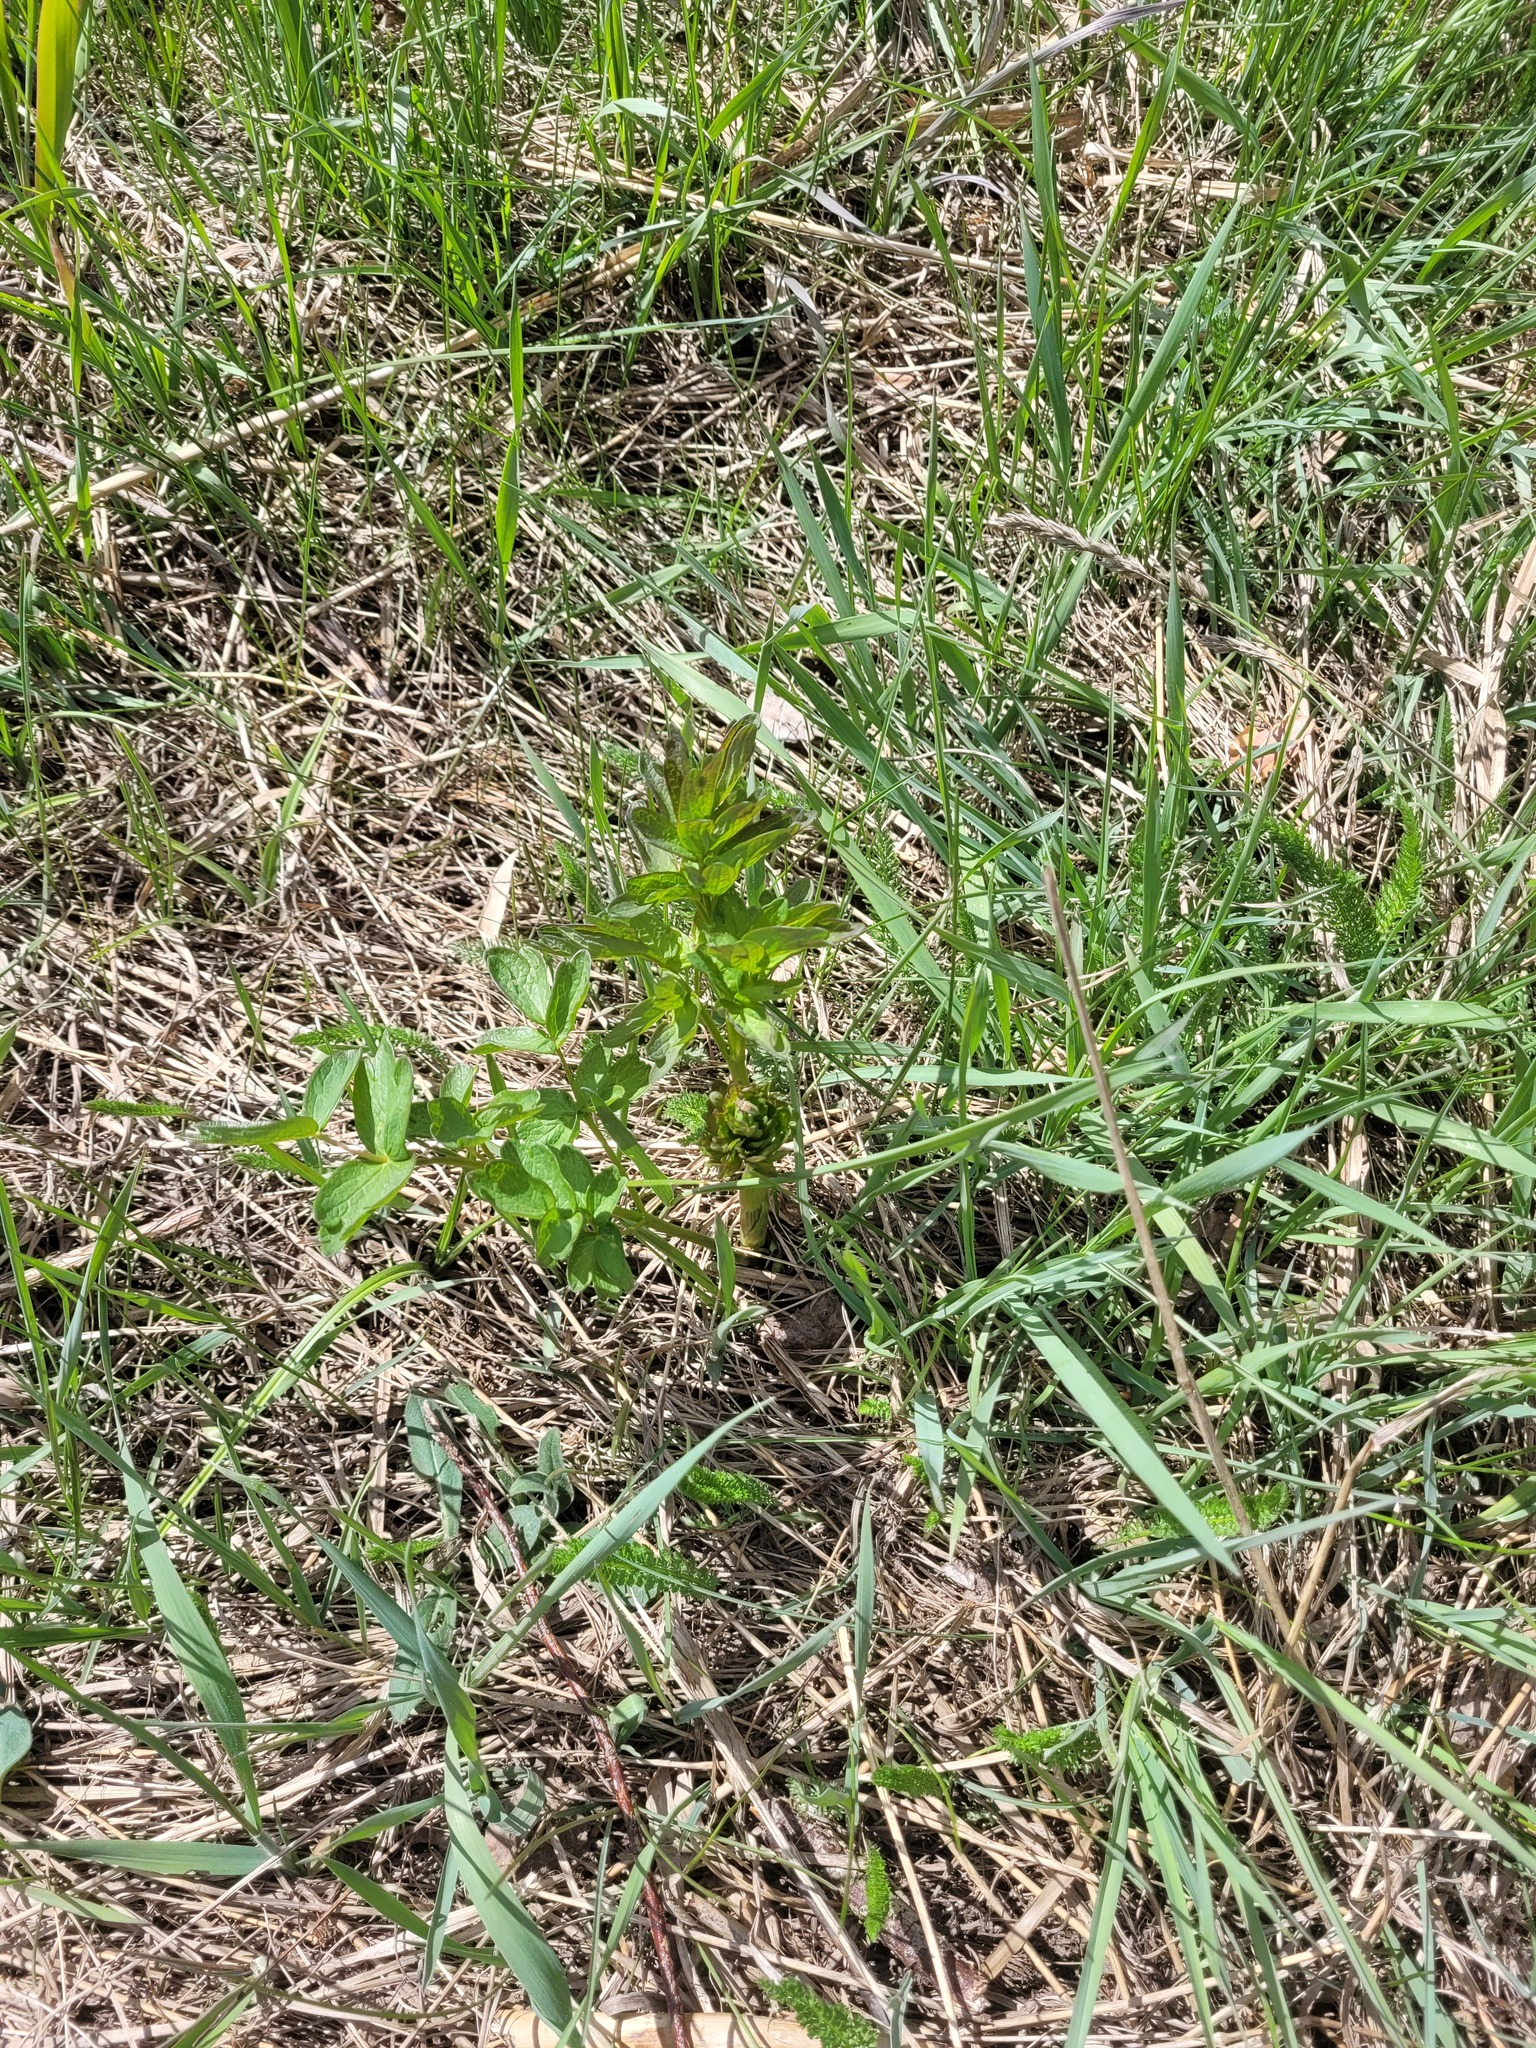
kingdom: Plantae
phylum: Tracheophyta
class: Magnoliopsida
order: Ranunculales
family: Ranunculaceae
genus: Thalictrum
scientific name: Thalictrum flavum
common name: Common meadow-rue
